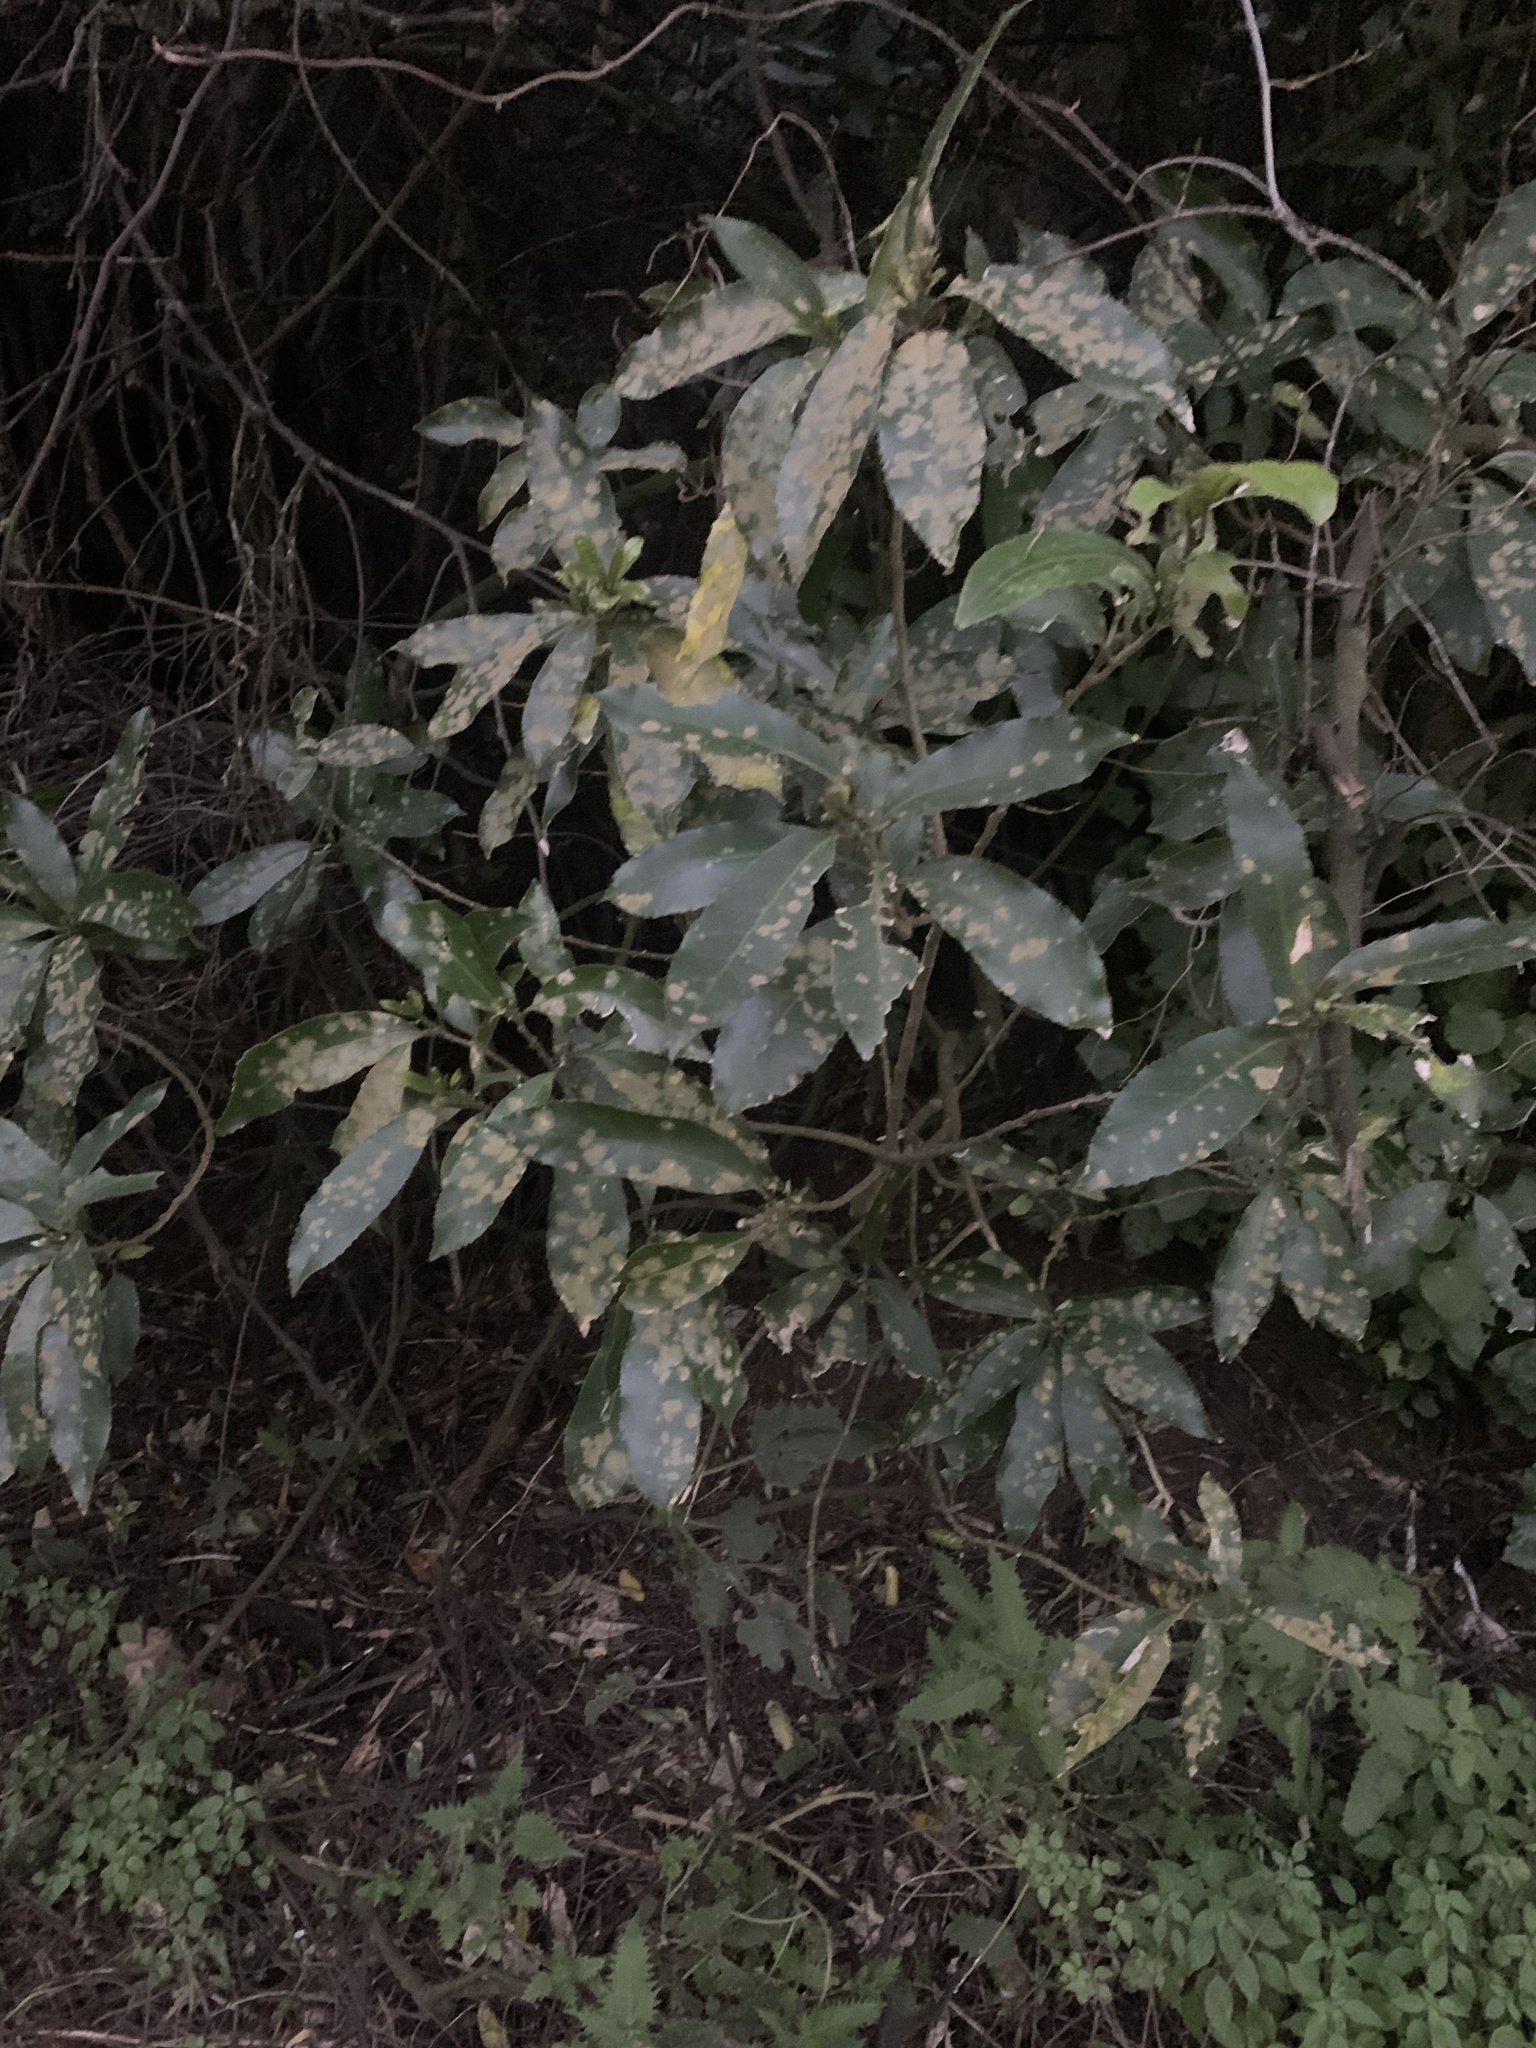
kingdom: Plantae
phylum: Chlorophyta
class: Ulvophyceae
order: Trentepohliales
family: Trentepohliaceae
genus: Cephaleuros
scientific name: Cephaleuros
